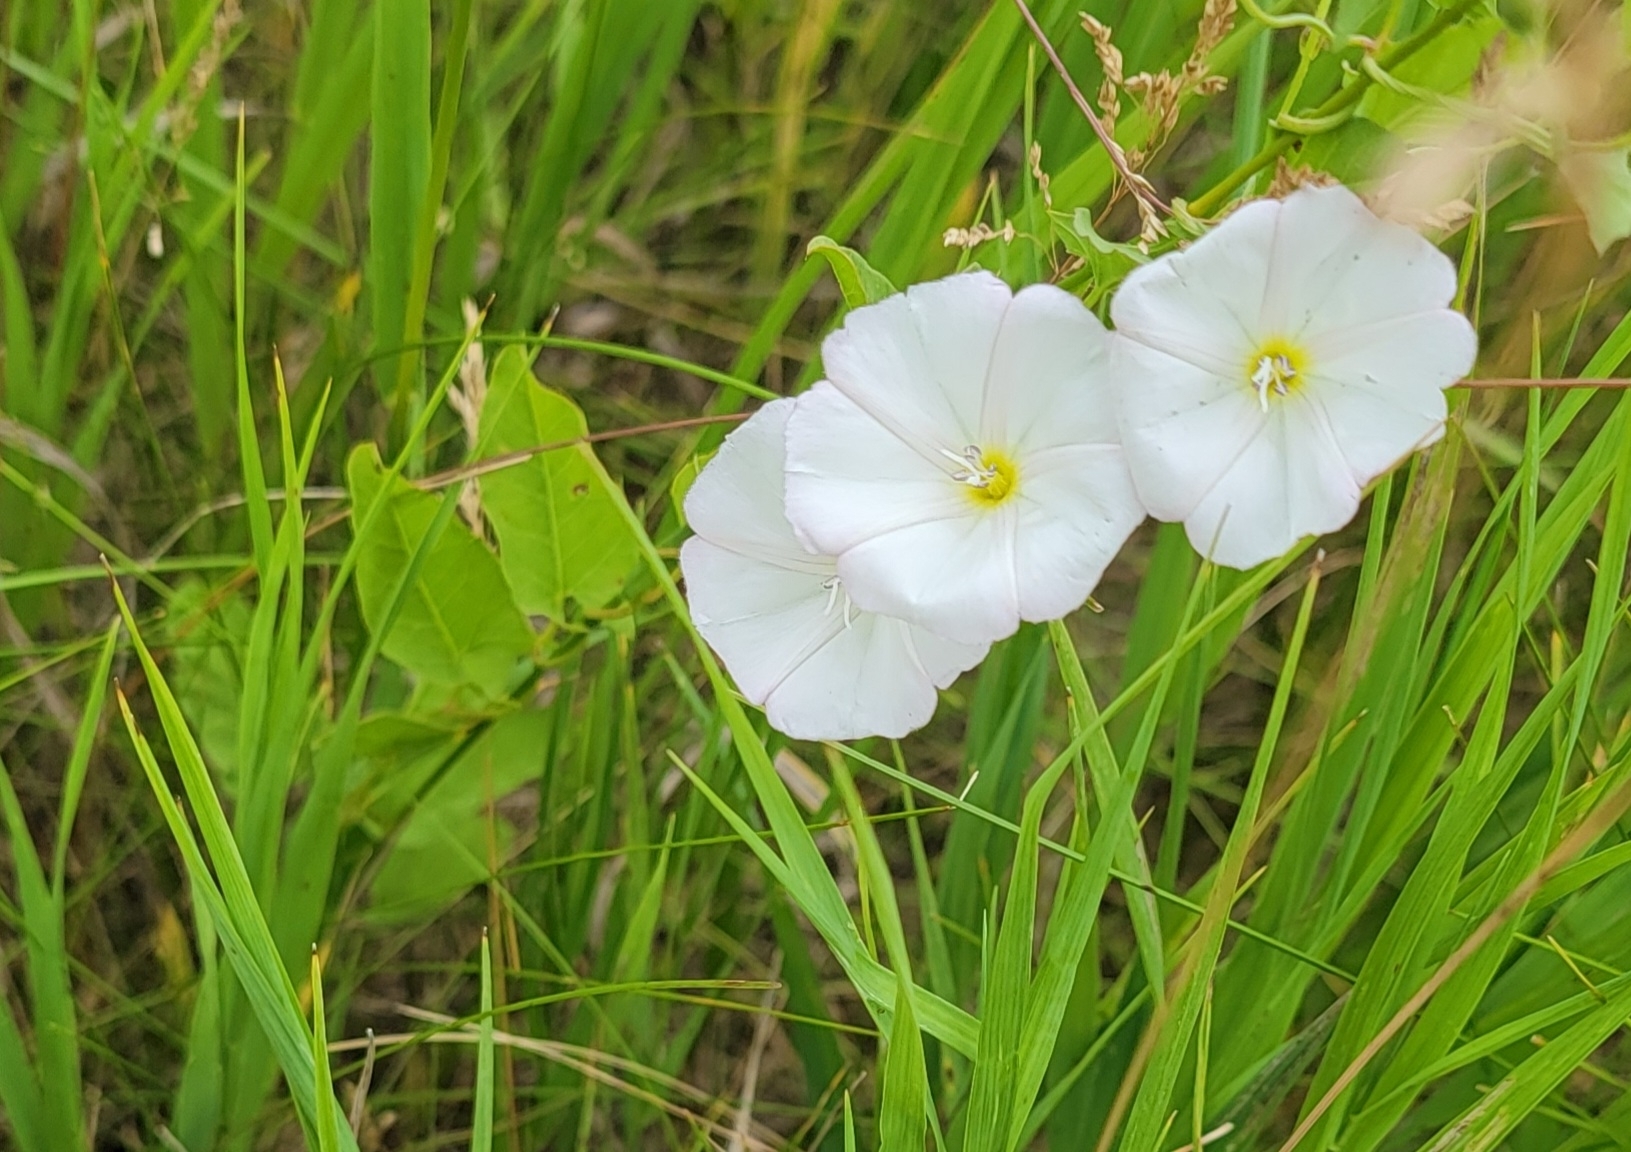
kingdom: Plantae
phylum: Tracheophyta
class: Magnoliopsida
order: Solanales
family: Convolvulaceae
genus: Convolvulus
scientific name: Convolvulus arvensis
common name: Field bindweed
